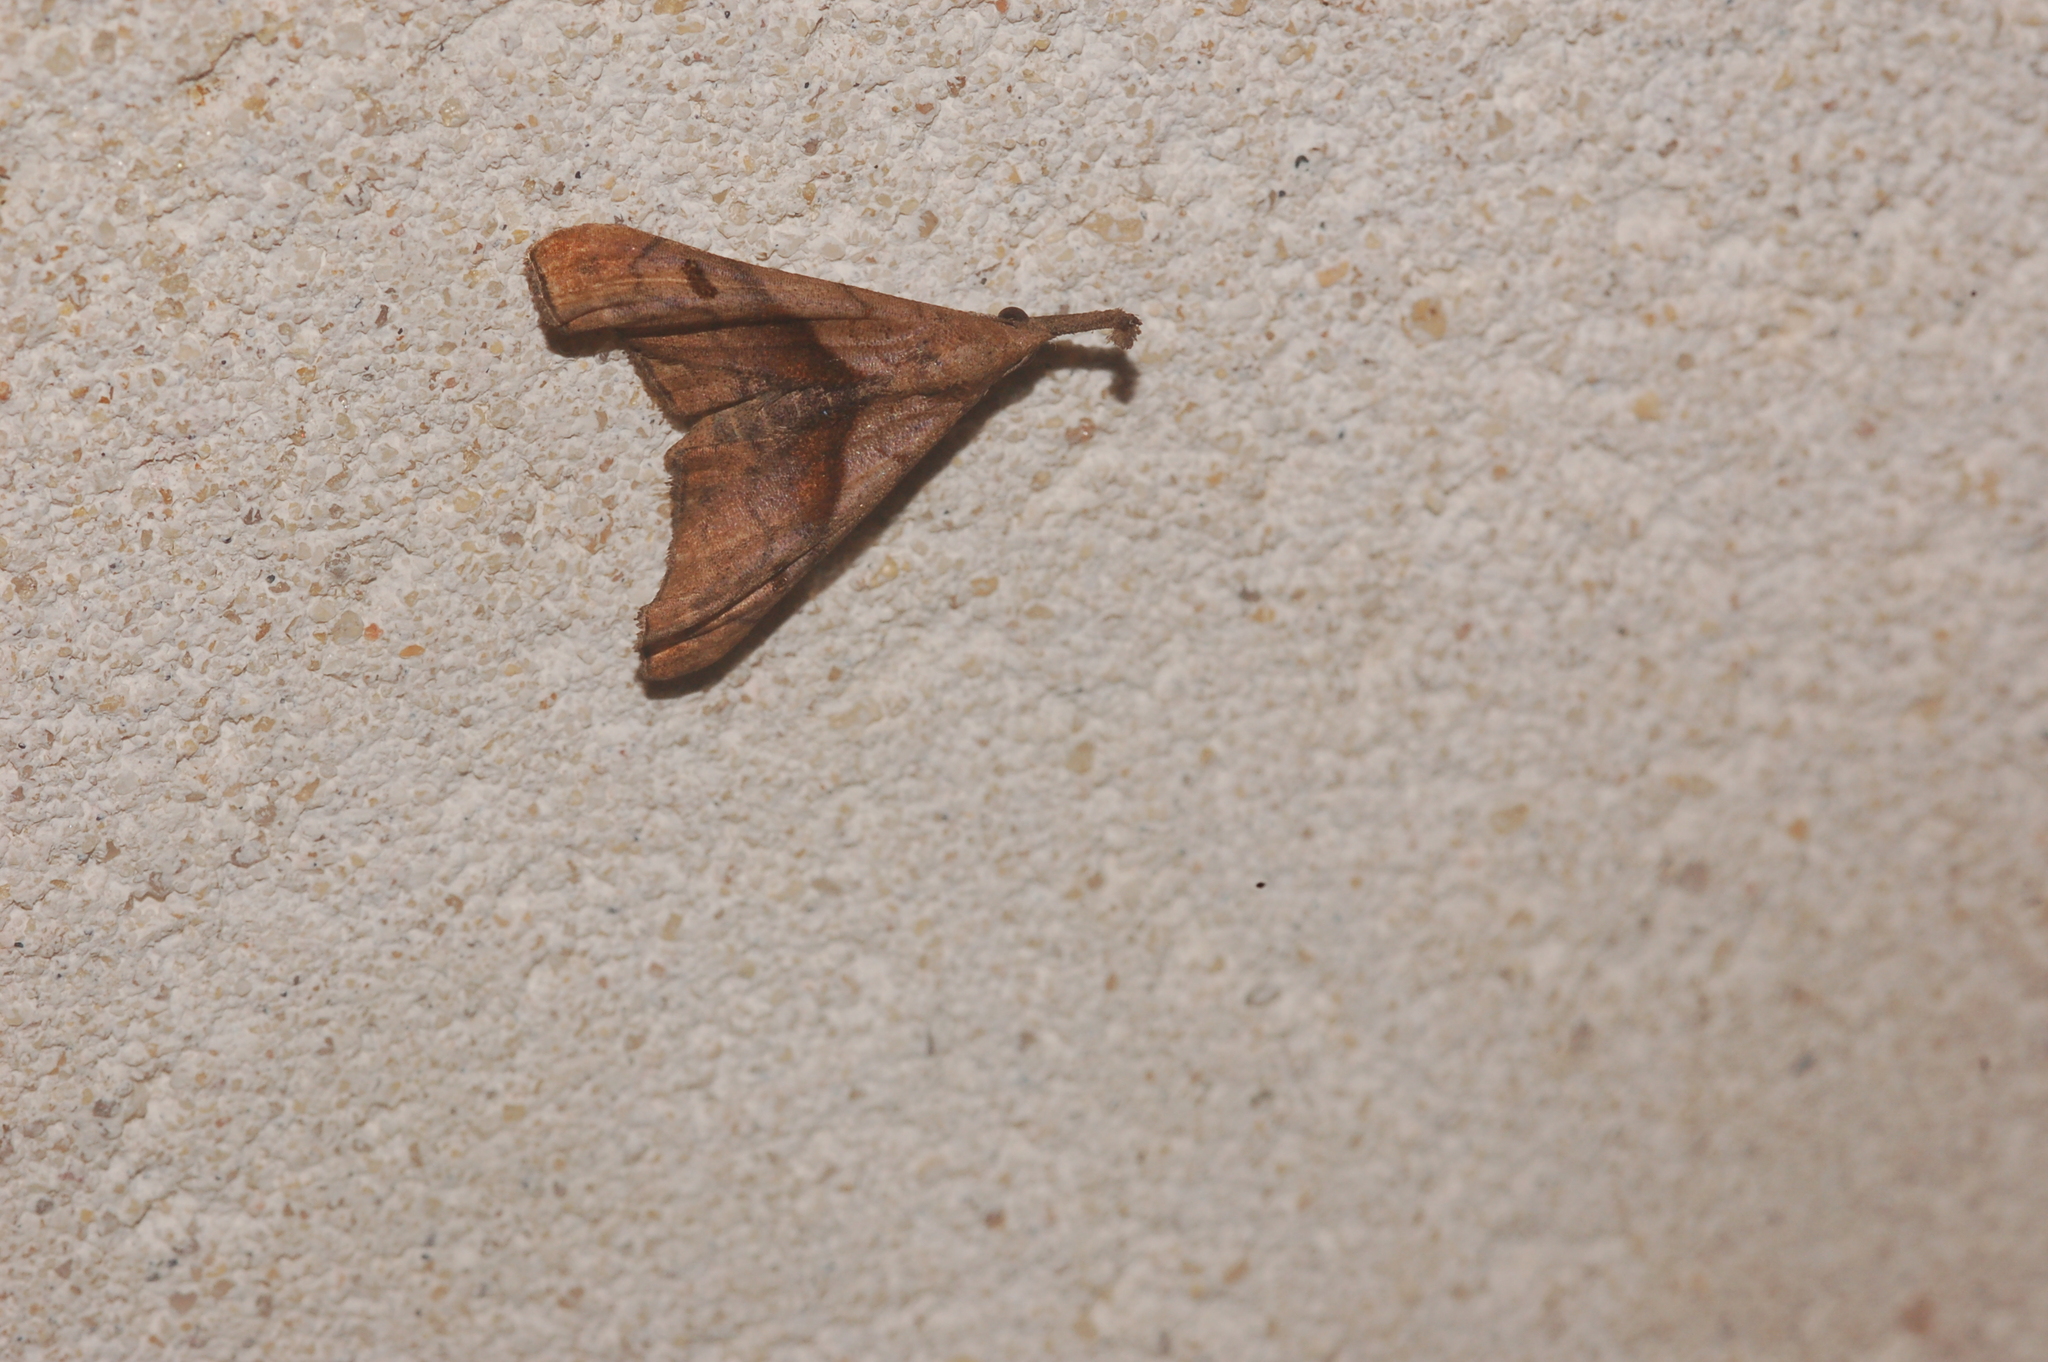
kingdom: Animalia
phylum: Arthropoda
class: Insecta
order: Lepidoptera
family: Erebidae
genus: Palthis
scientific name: Palthis angulalis
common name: Dark-spotted palthis moth
